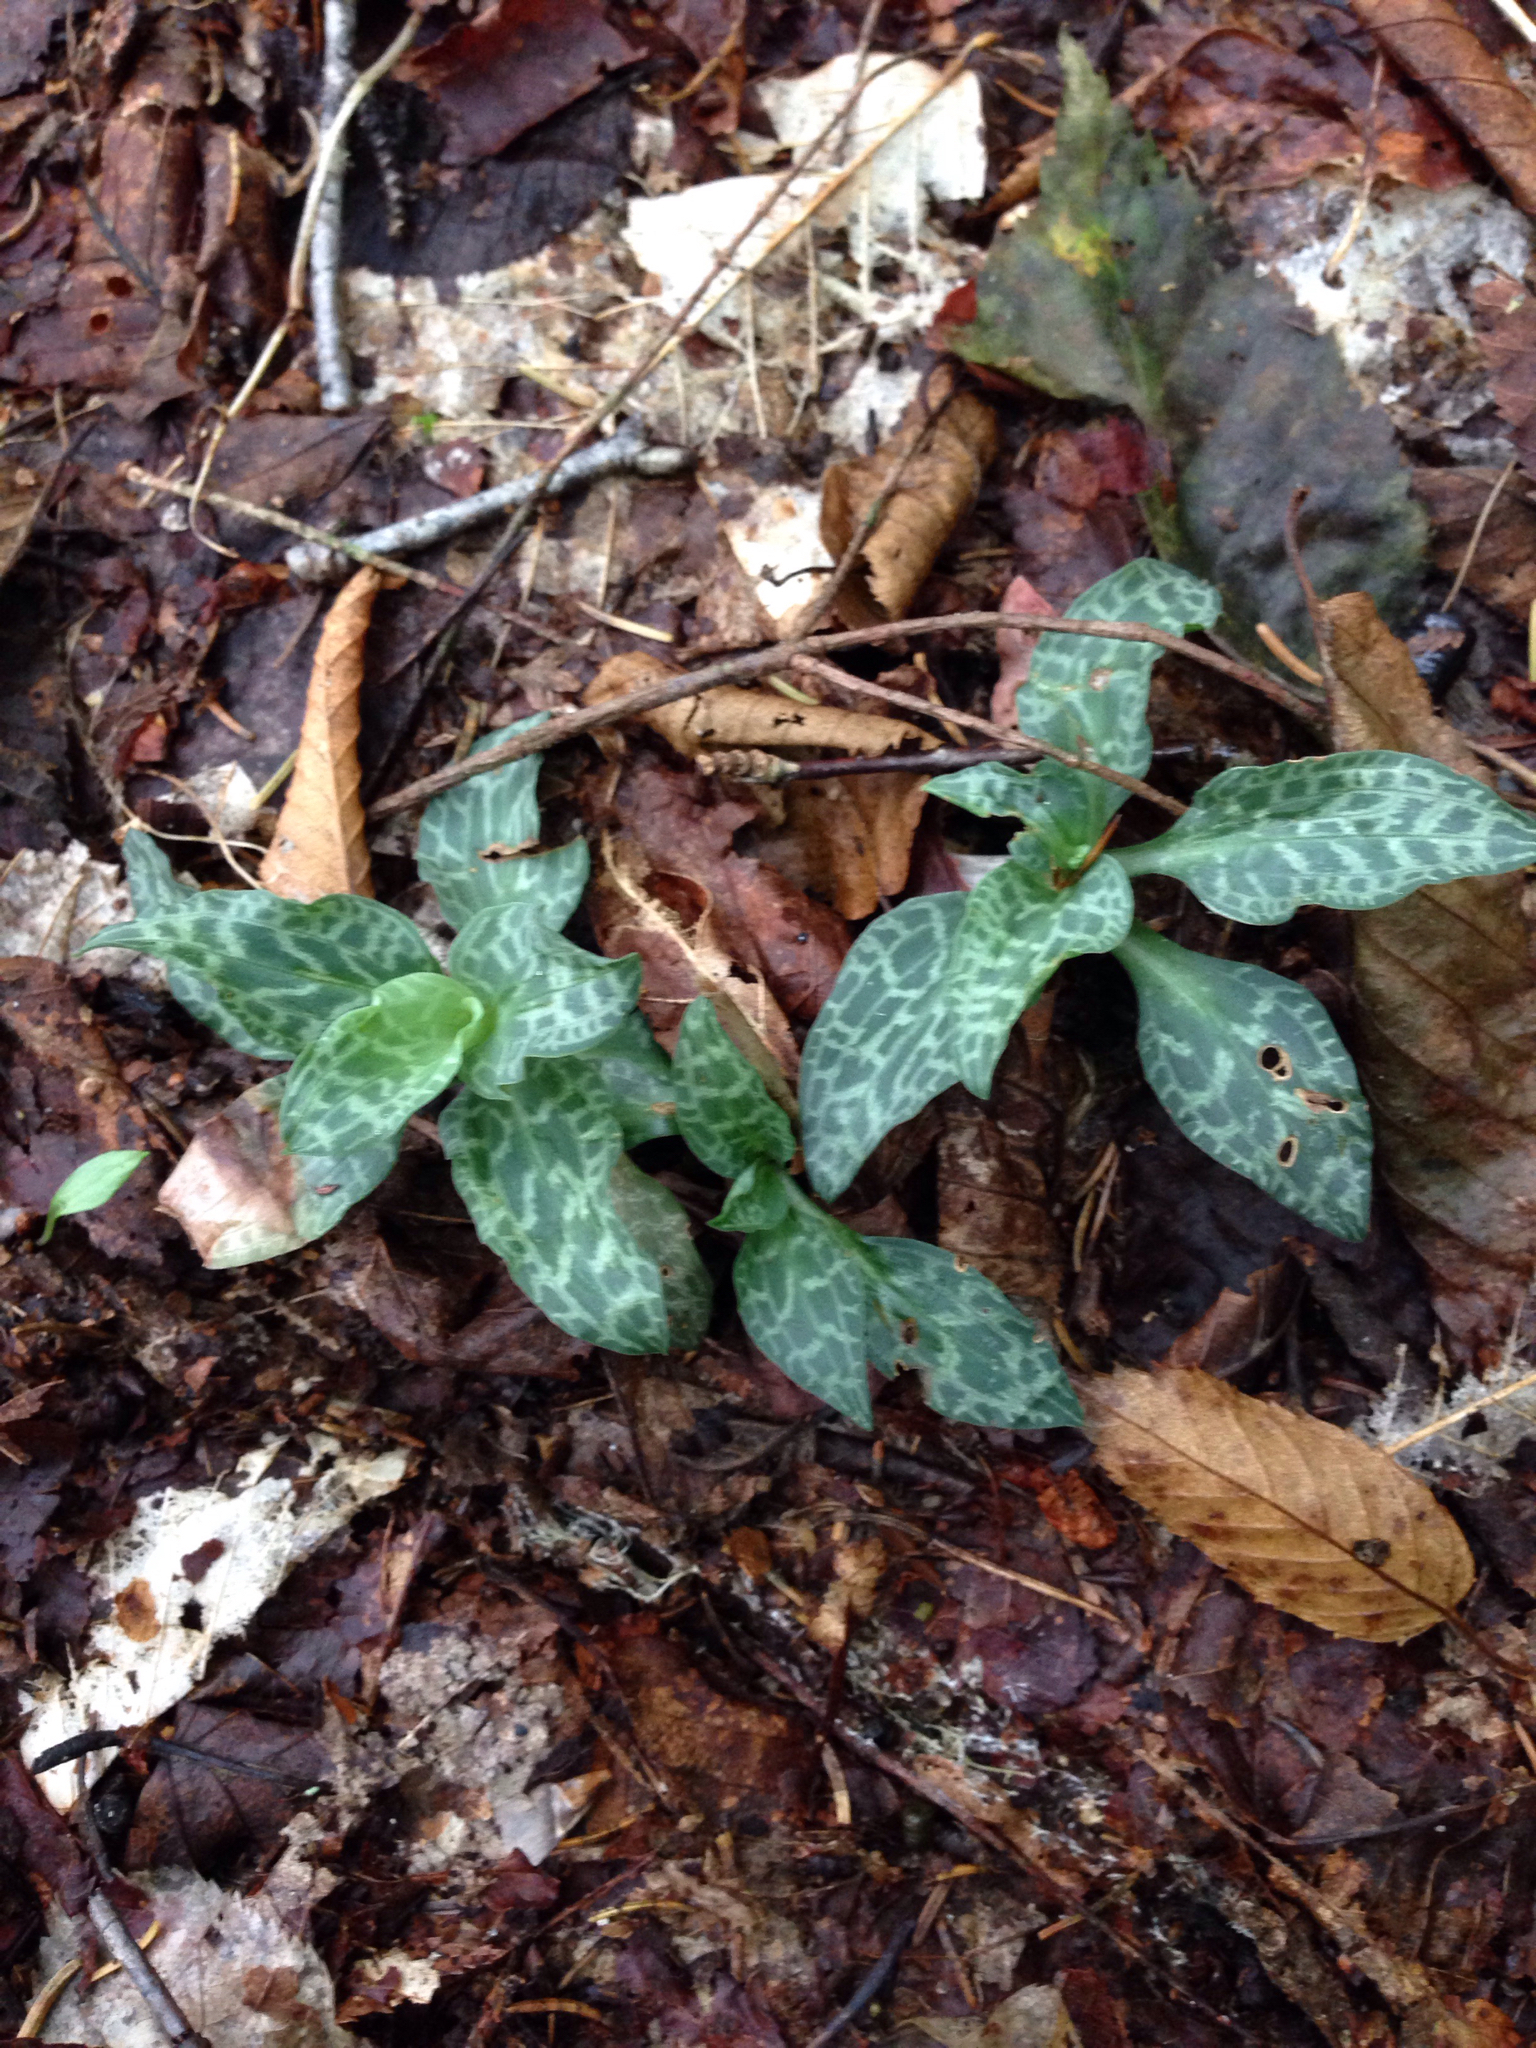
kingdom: Plantae
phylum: Tracheophyta
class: Liliopsida
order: Asparagales
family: Orchidaceae
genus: Goodyera
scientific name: Goodyera tesselata
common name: Checkered rattlesnake-plantain
